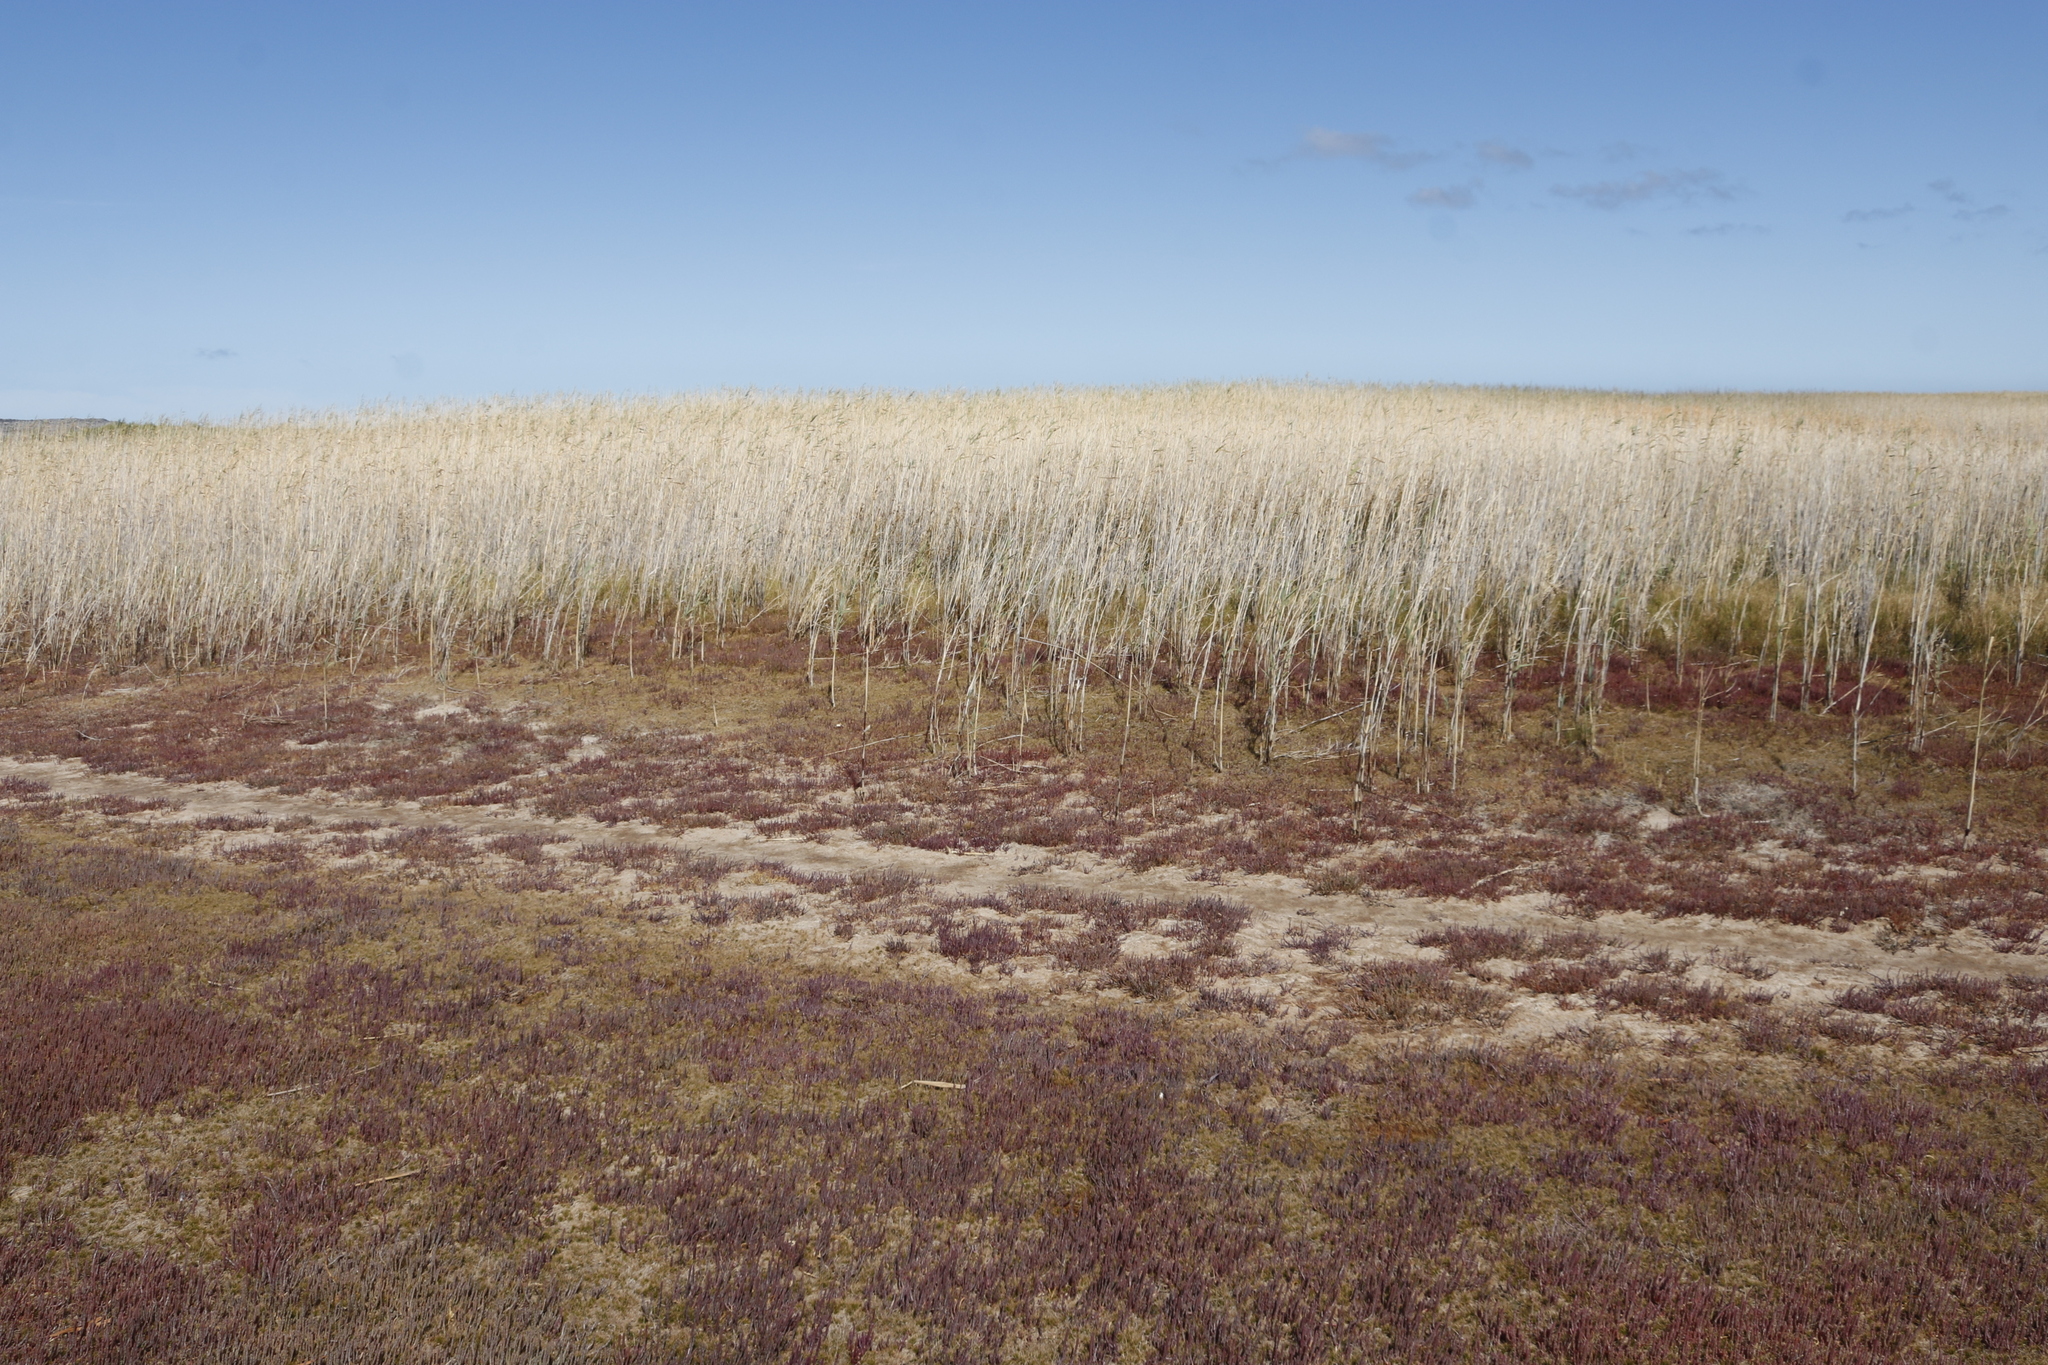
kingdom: Plantae
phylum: Tracheophyta
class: Magnoliopsida
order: Caryophyllales
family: Amaranthaceae
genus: Salicornia
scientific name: Salicornia natalensis
